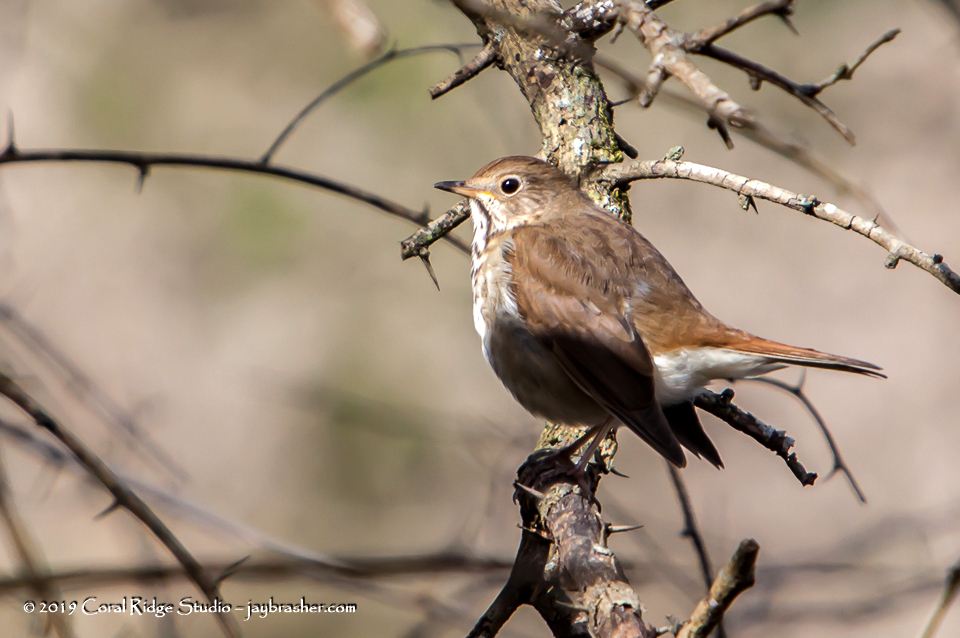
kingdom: Animalia
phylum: Chordata
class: Aves
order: Passeriformes
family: Turdidae
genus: Catharus
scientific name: Catharus guttatus
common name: Hermit thrush
